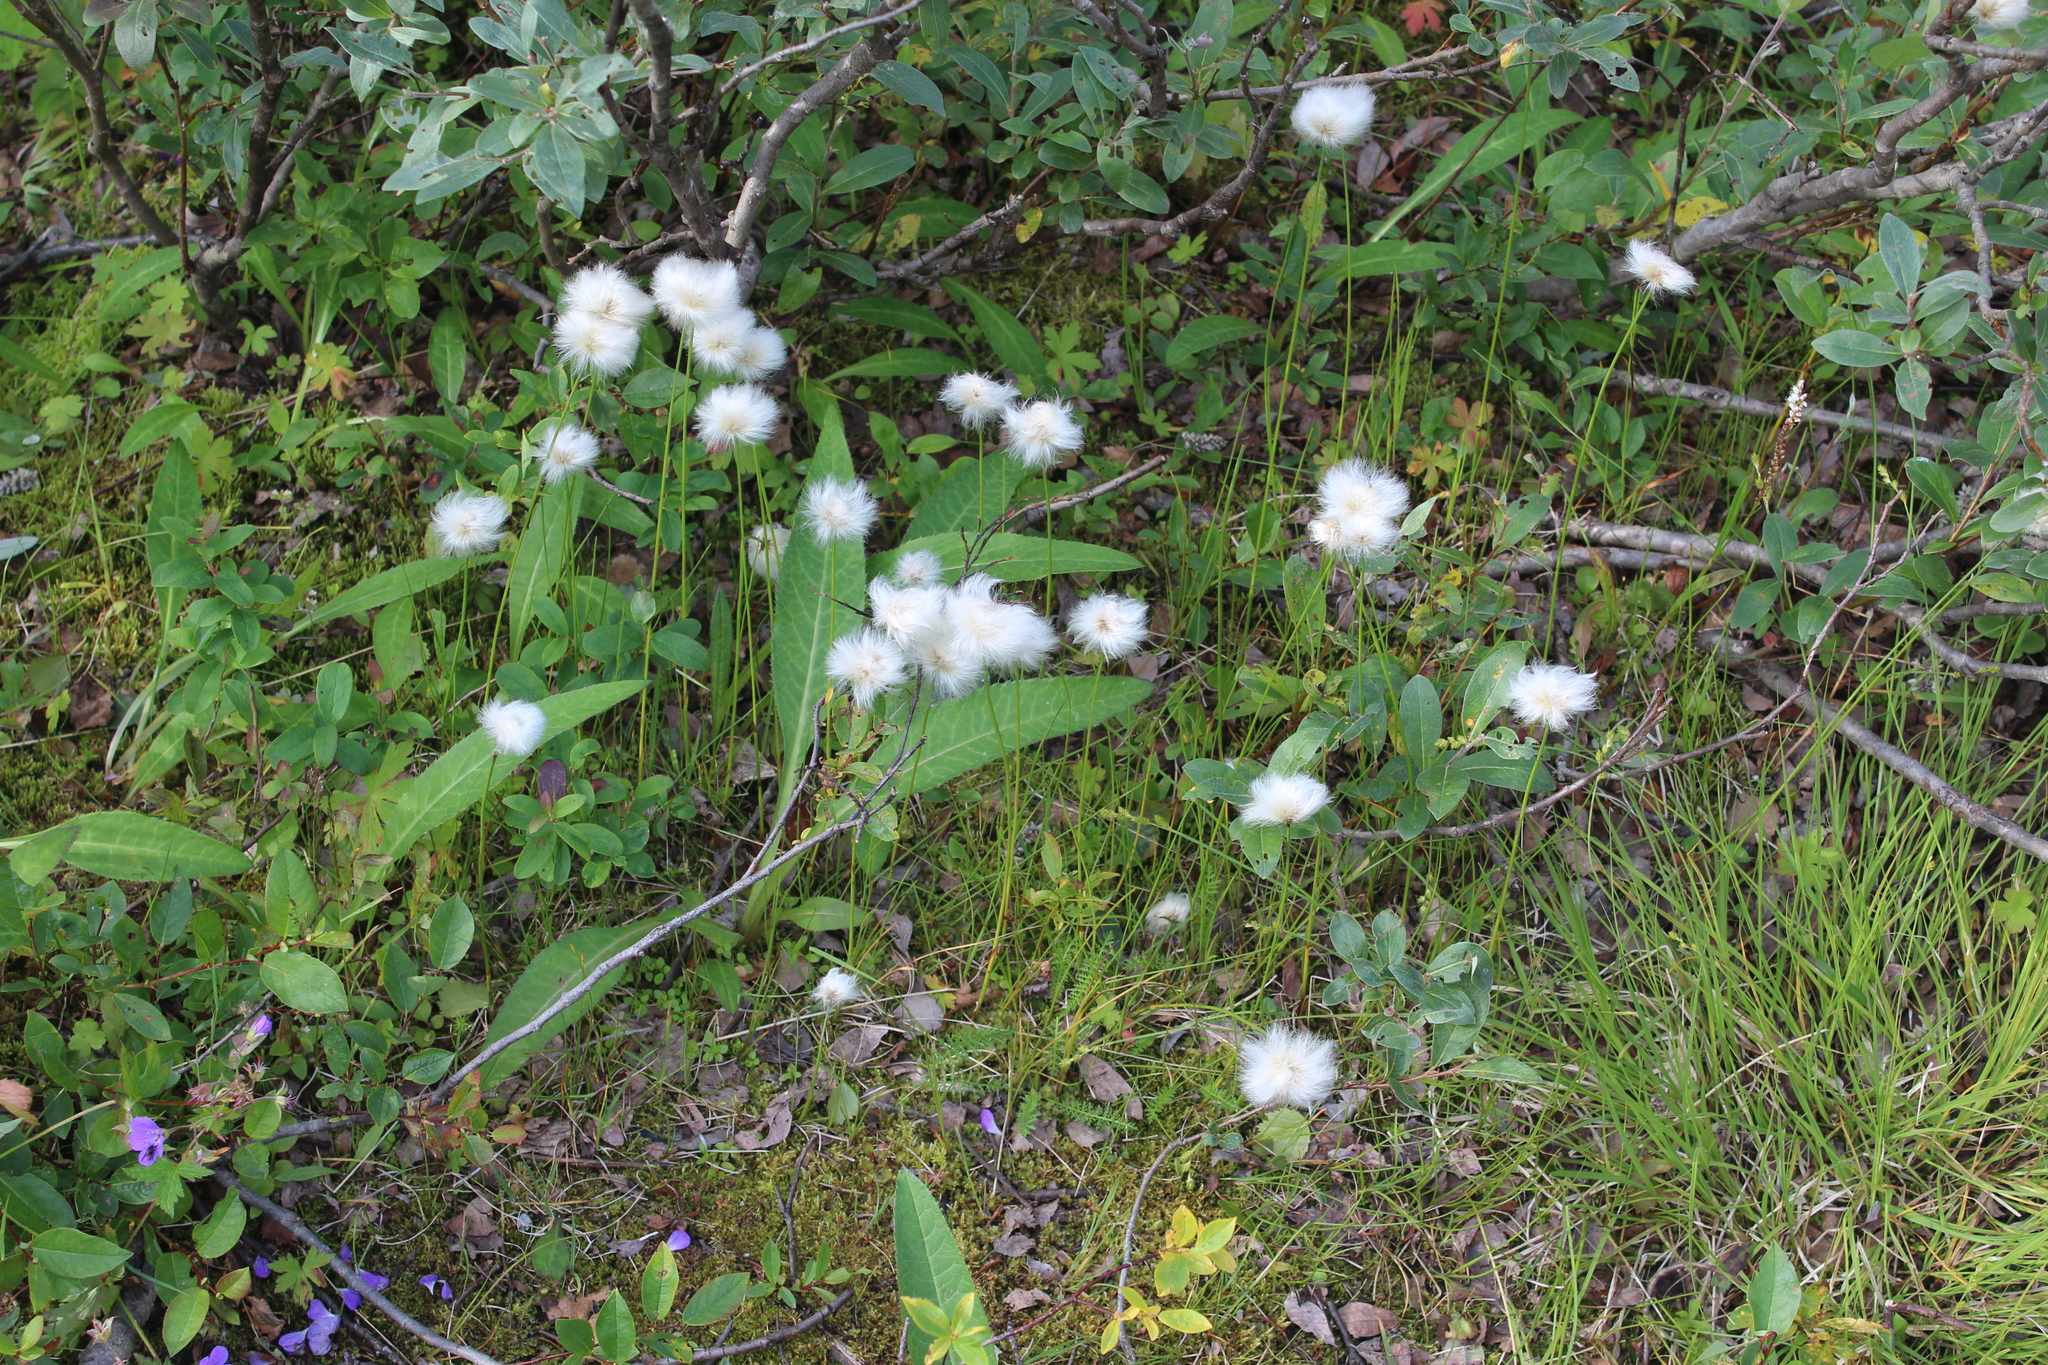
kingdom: Plantae
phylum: Tracheophyta
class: Liliopsida
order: Poales
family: Cyperaceae
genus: Eriophorum
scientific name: Eriophorum scheuchzeri
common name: Scheuchzer's cottongrass
